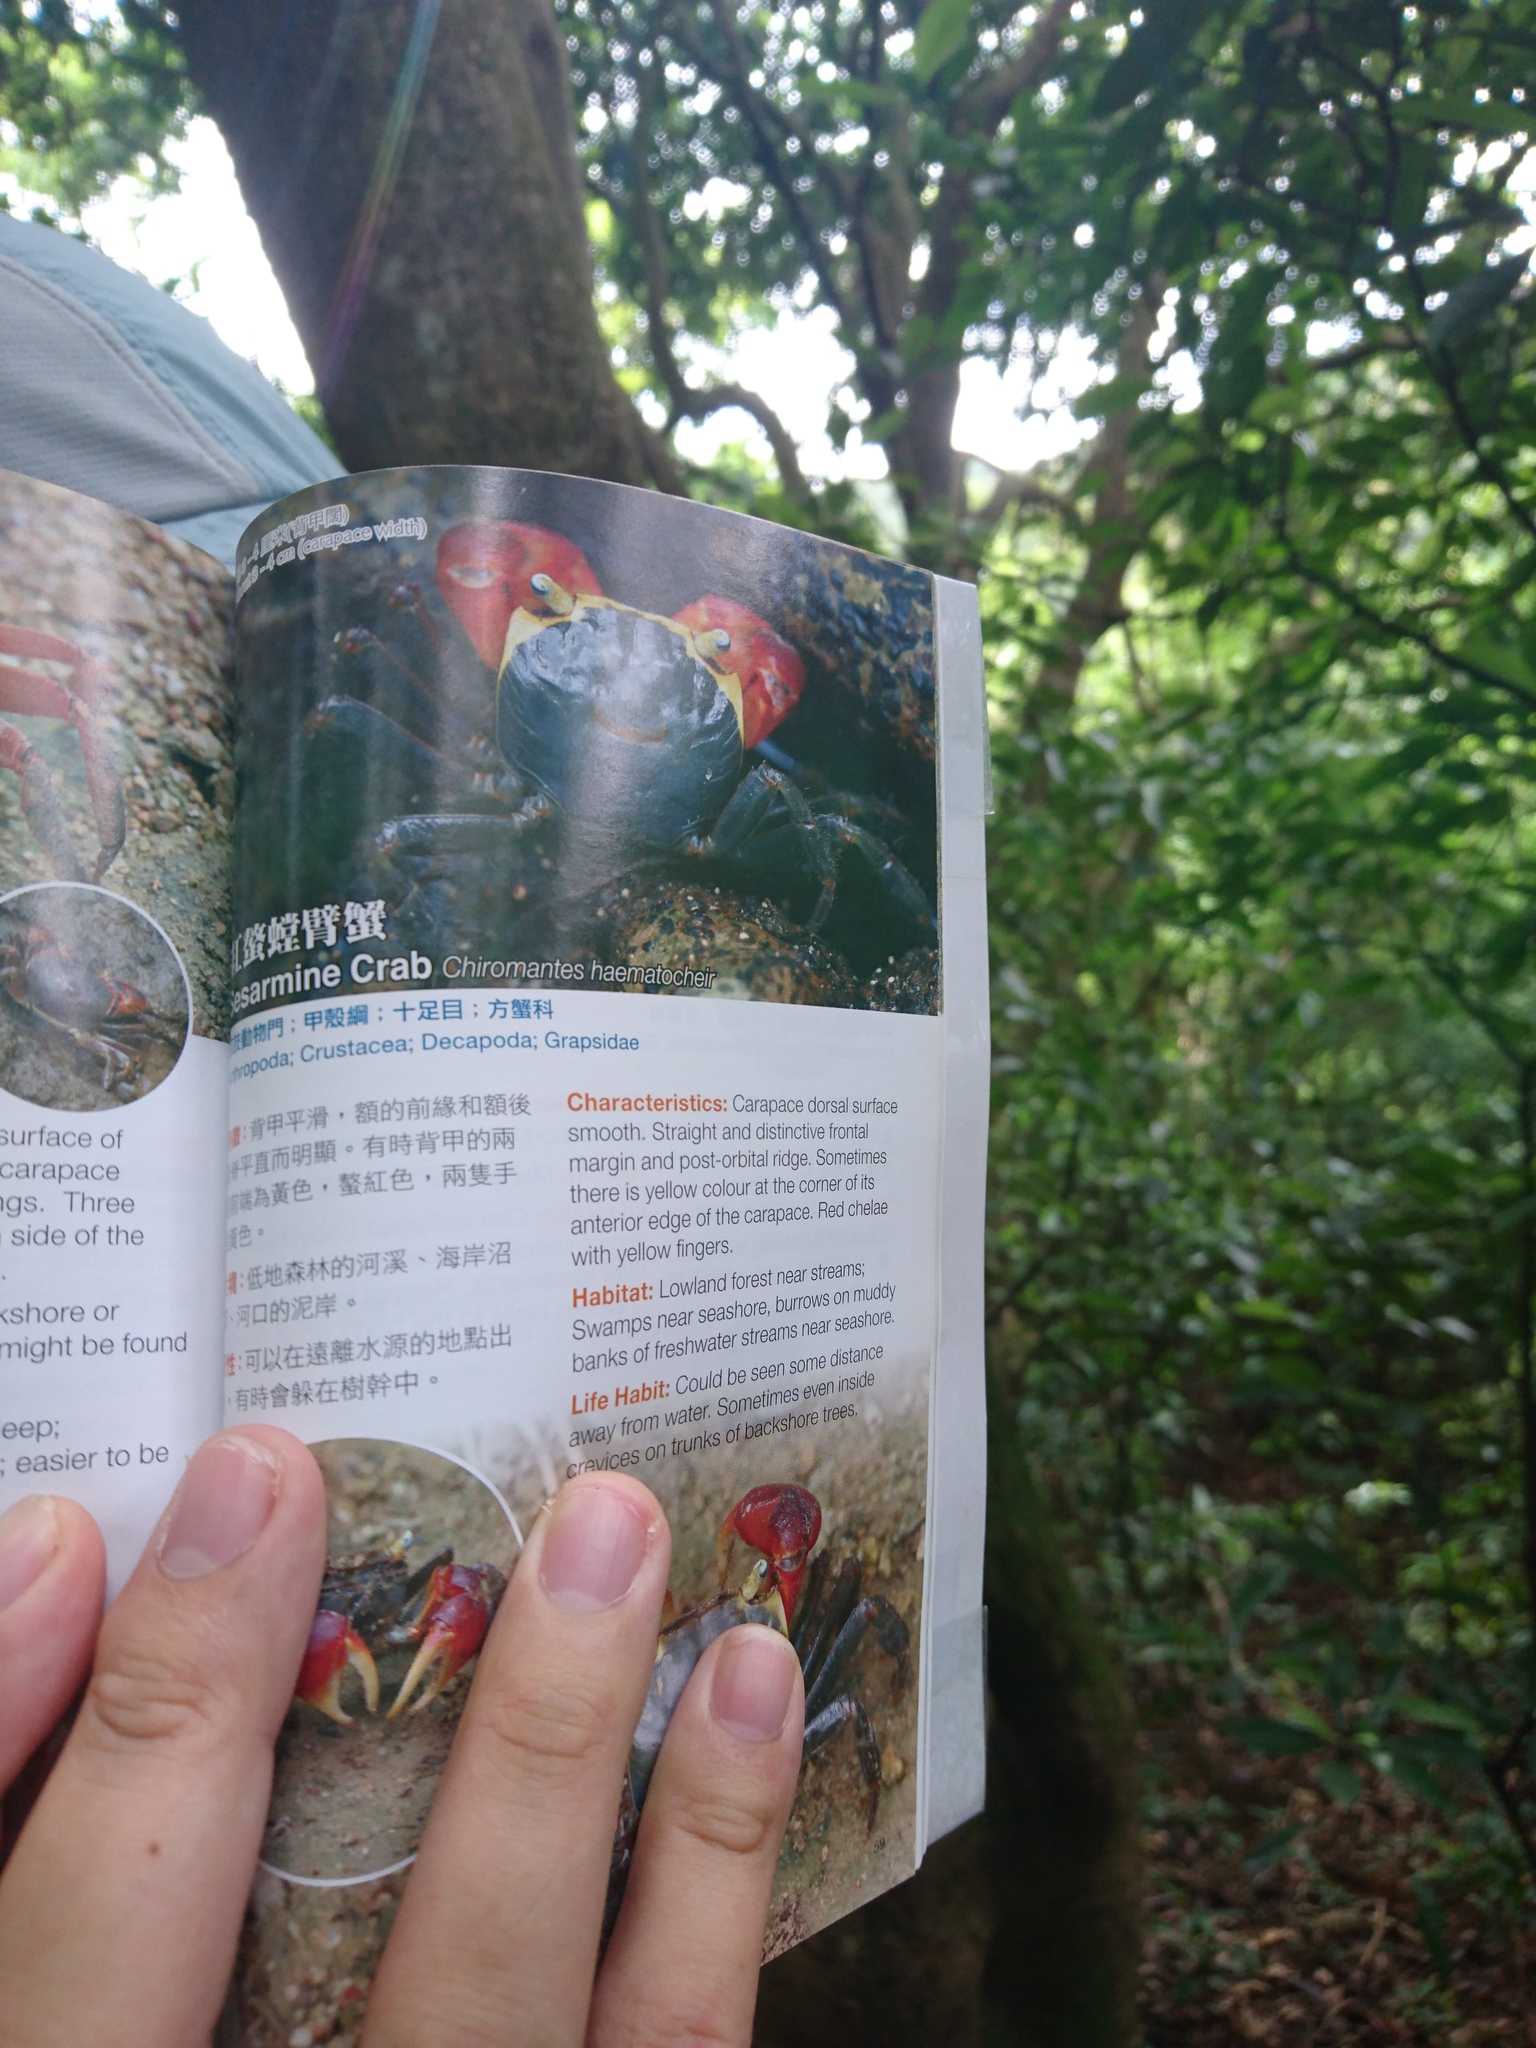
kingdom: Animalia
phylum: Arthropoda
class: Malacostraca
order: Decapoda
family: Sesarmidae
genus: Chiromantes
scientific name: Chiromantes haematocheir
